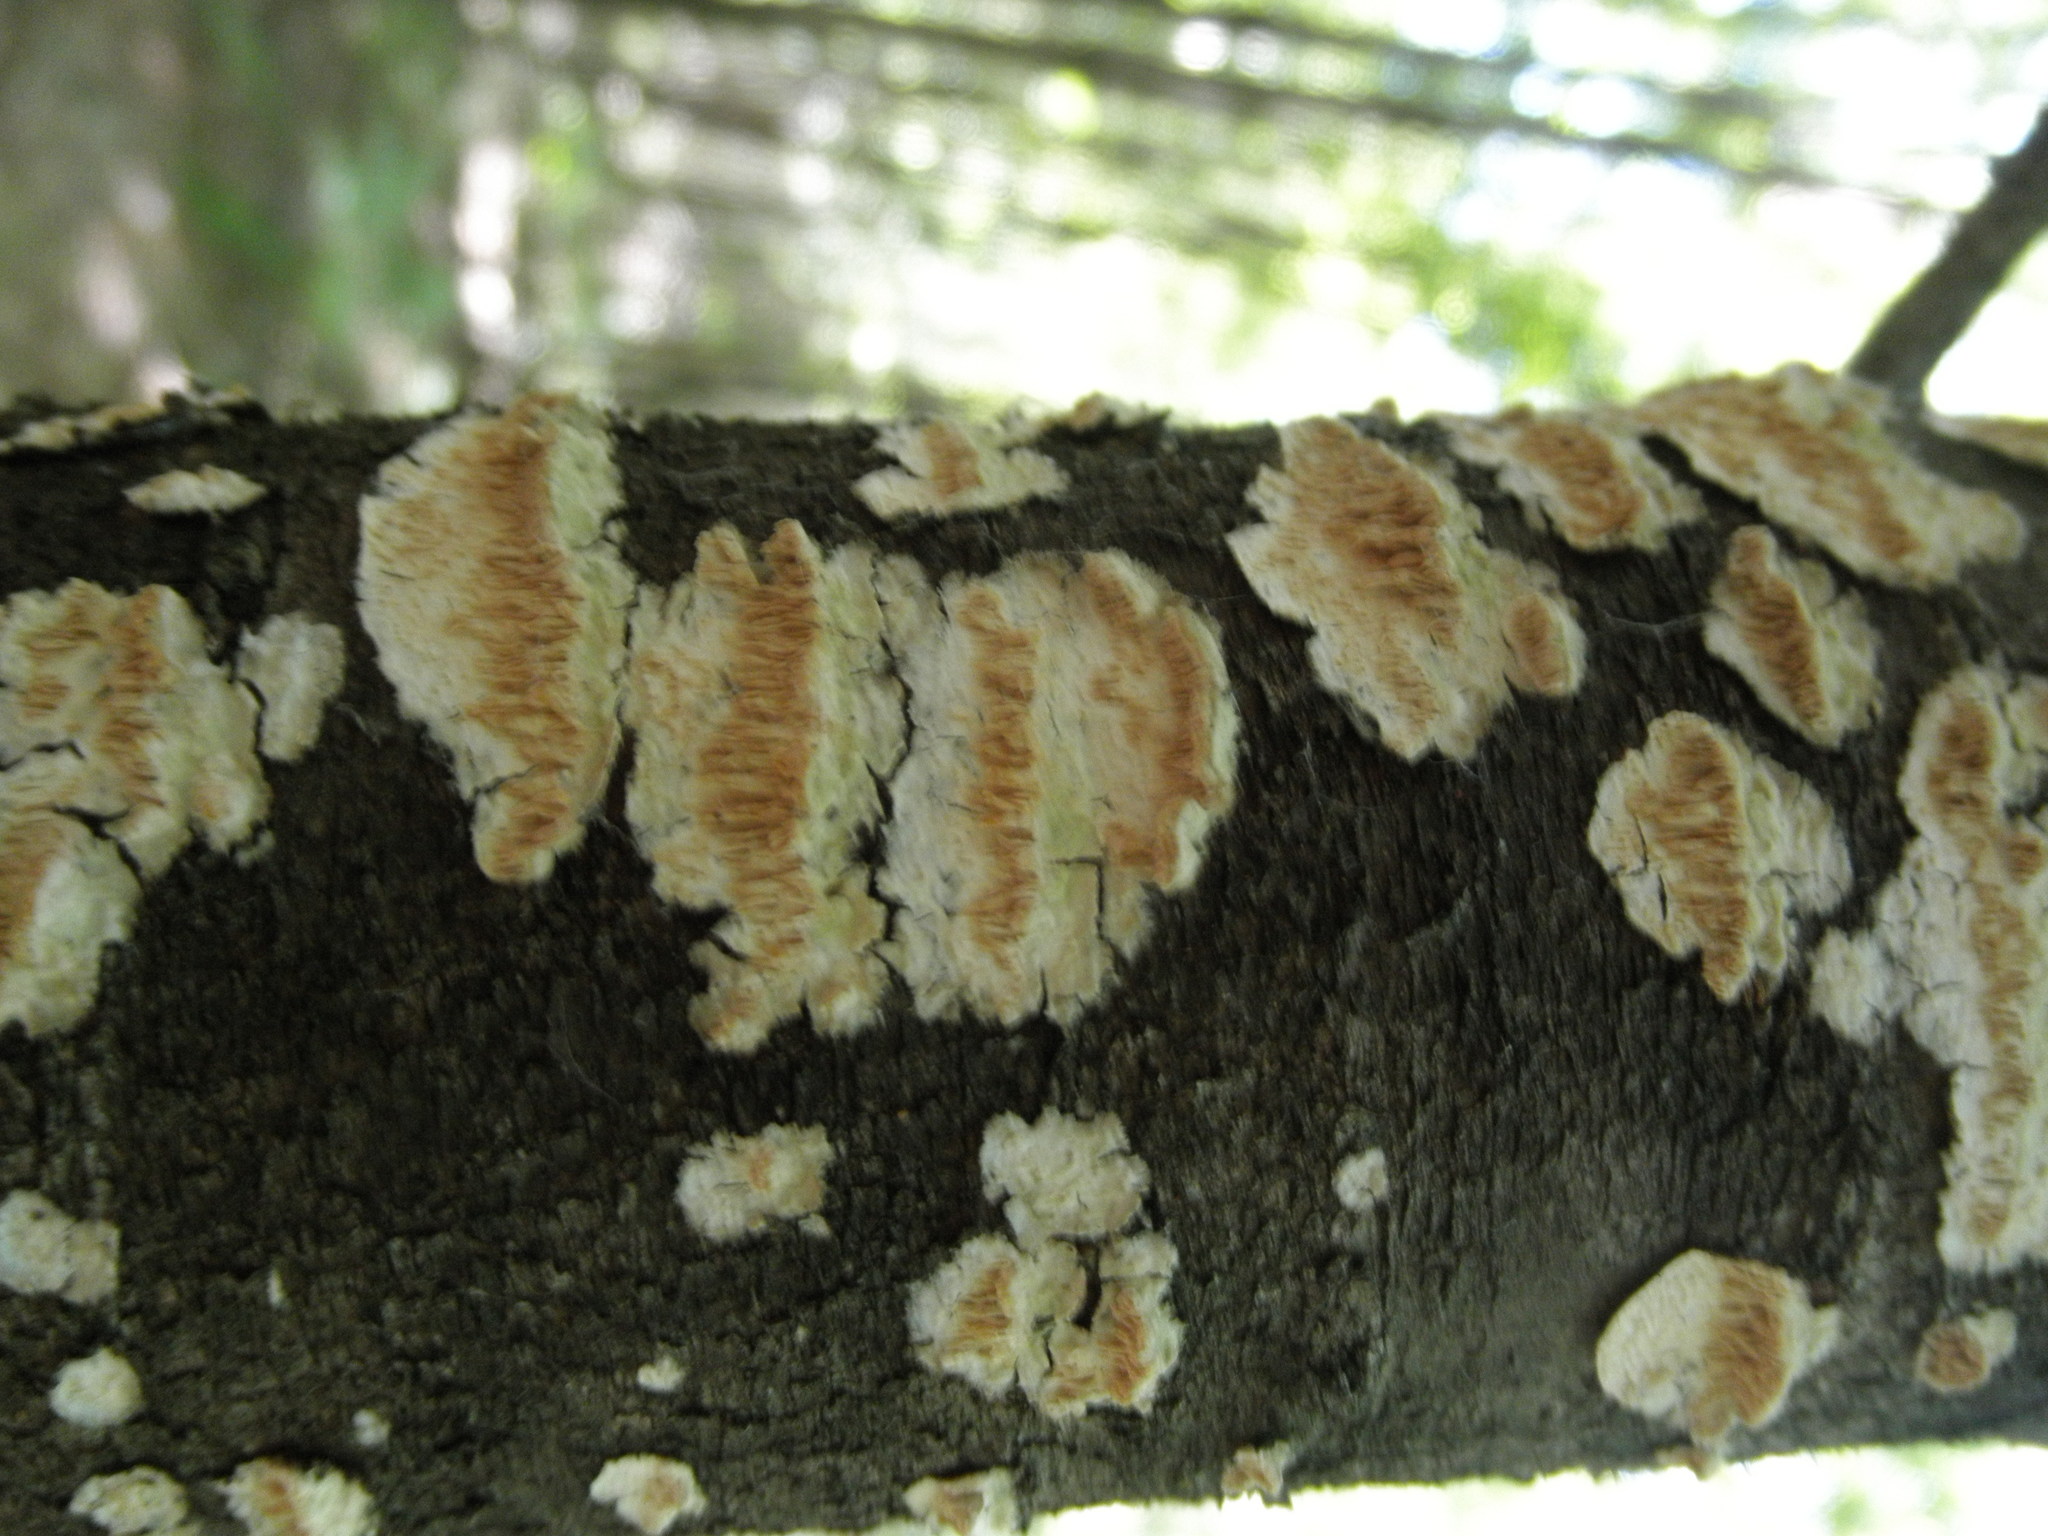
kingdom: Fungi
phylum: Basidiomycota
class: Agaricomycetes
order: Polyporales
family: Irpicaceae
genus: Irpex
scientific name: Irpex lacteus
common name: Milk-white toothed polypore
